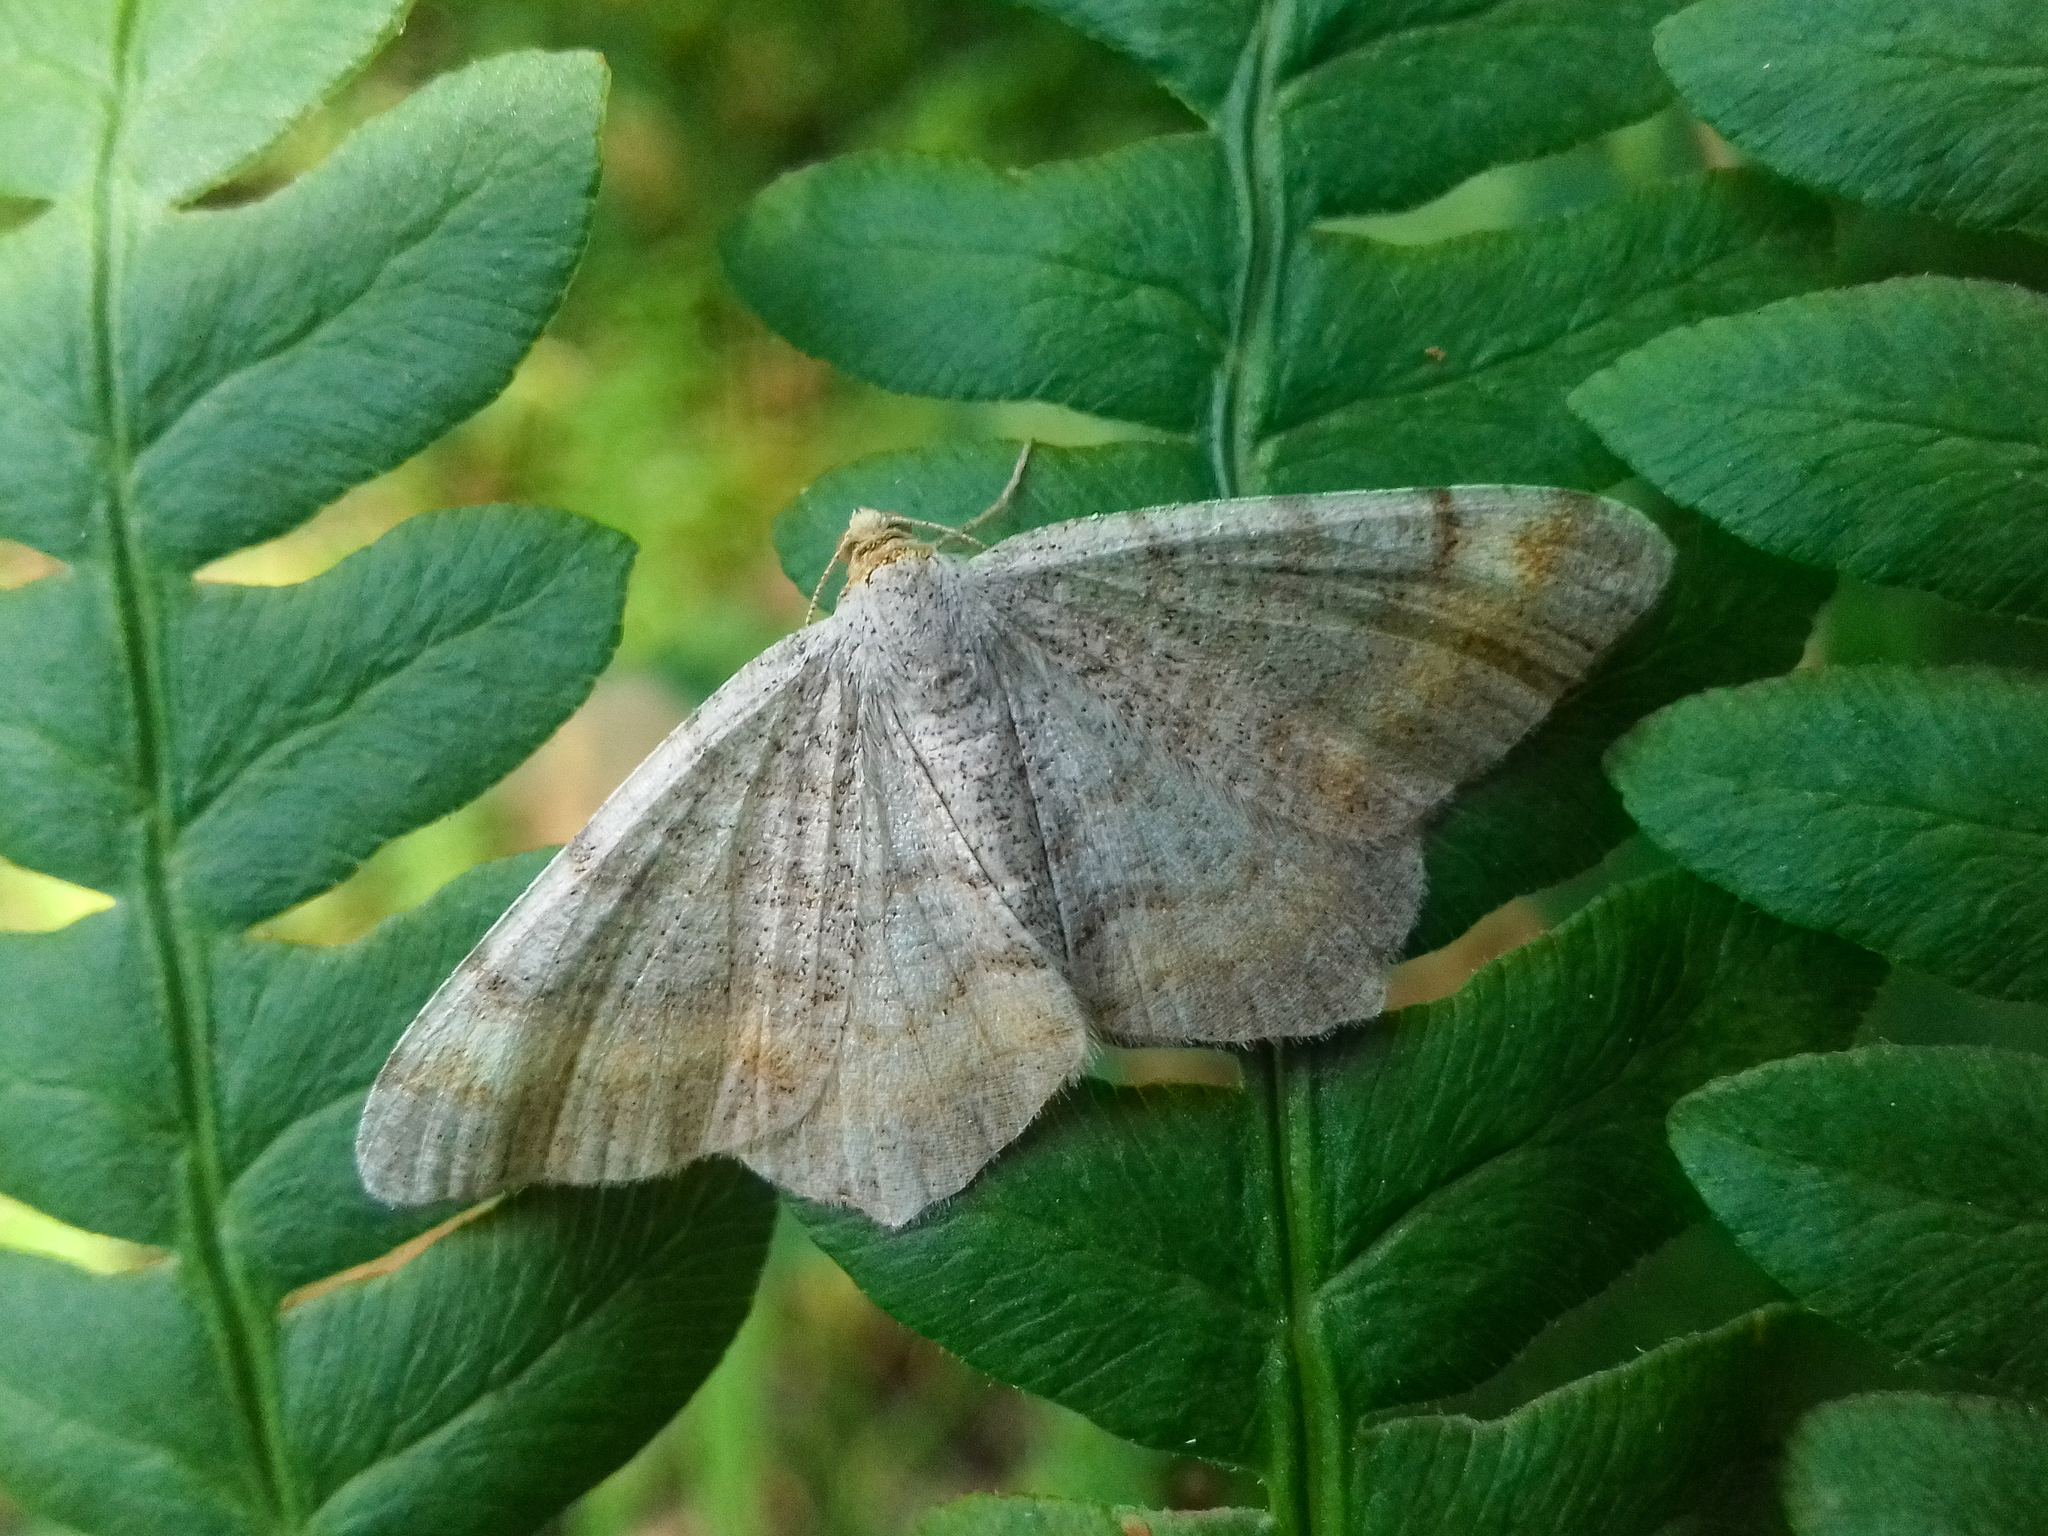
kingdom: Animalia
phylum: Arthropoda
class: Insecta
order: Lepidoptera
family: Geometridae
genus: Macaria
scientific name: Macaria liturata
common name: Tawny-barred angle
